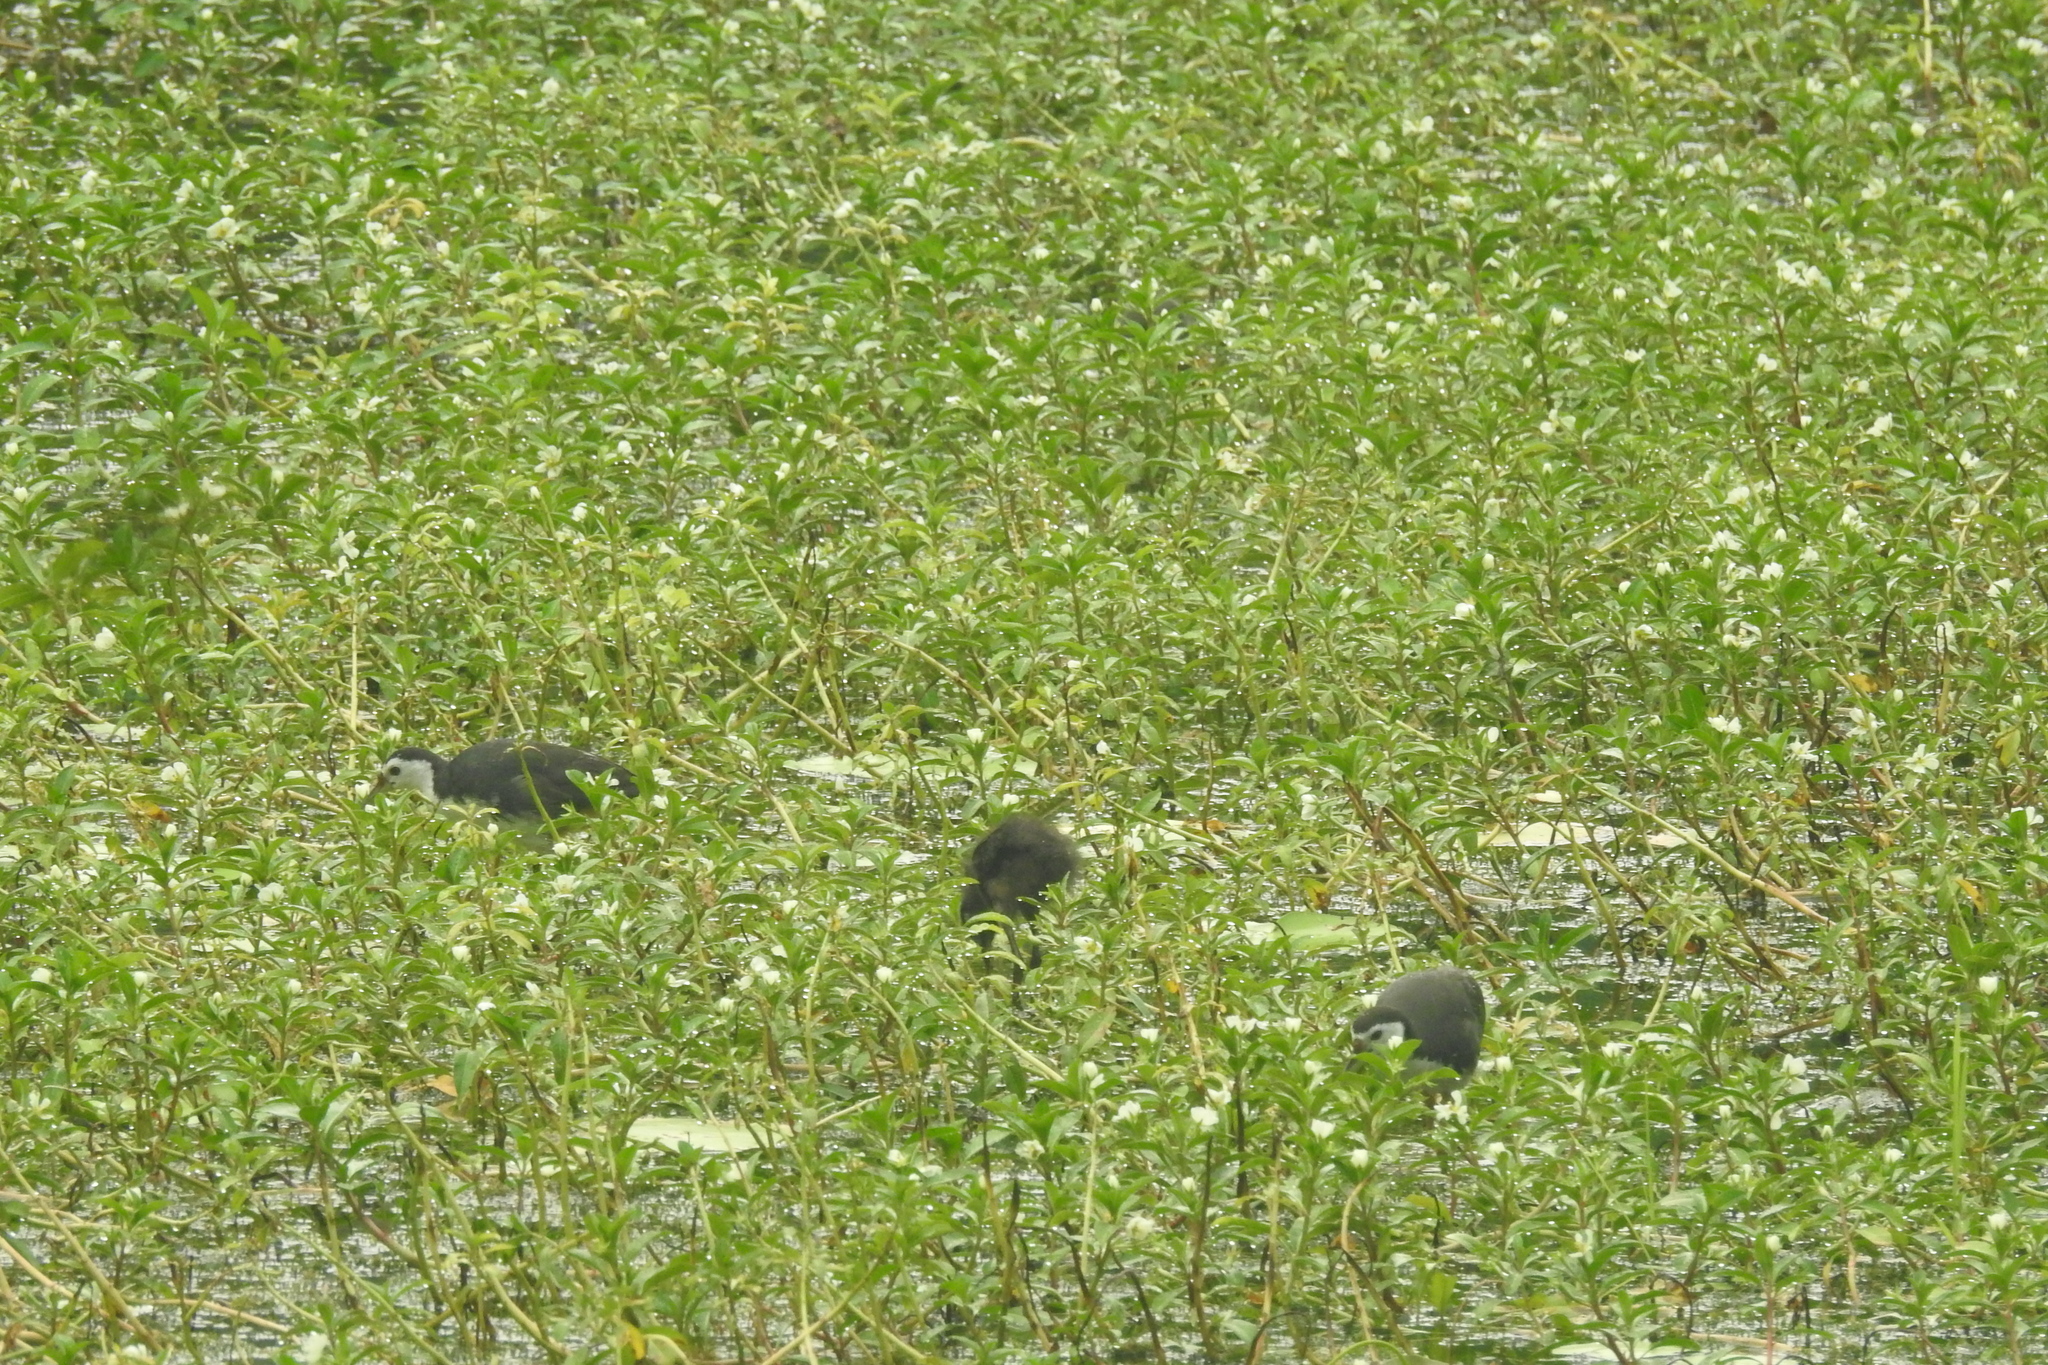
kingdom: Animalia
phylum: Chordata
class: Aves
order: Gruiformes
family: Rallidae
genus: Amaurornis
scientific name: Amaurornis phoenicurus
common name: White-breasted waterhen
